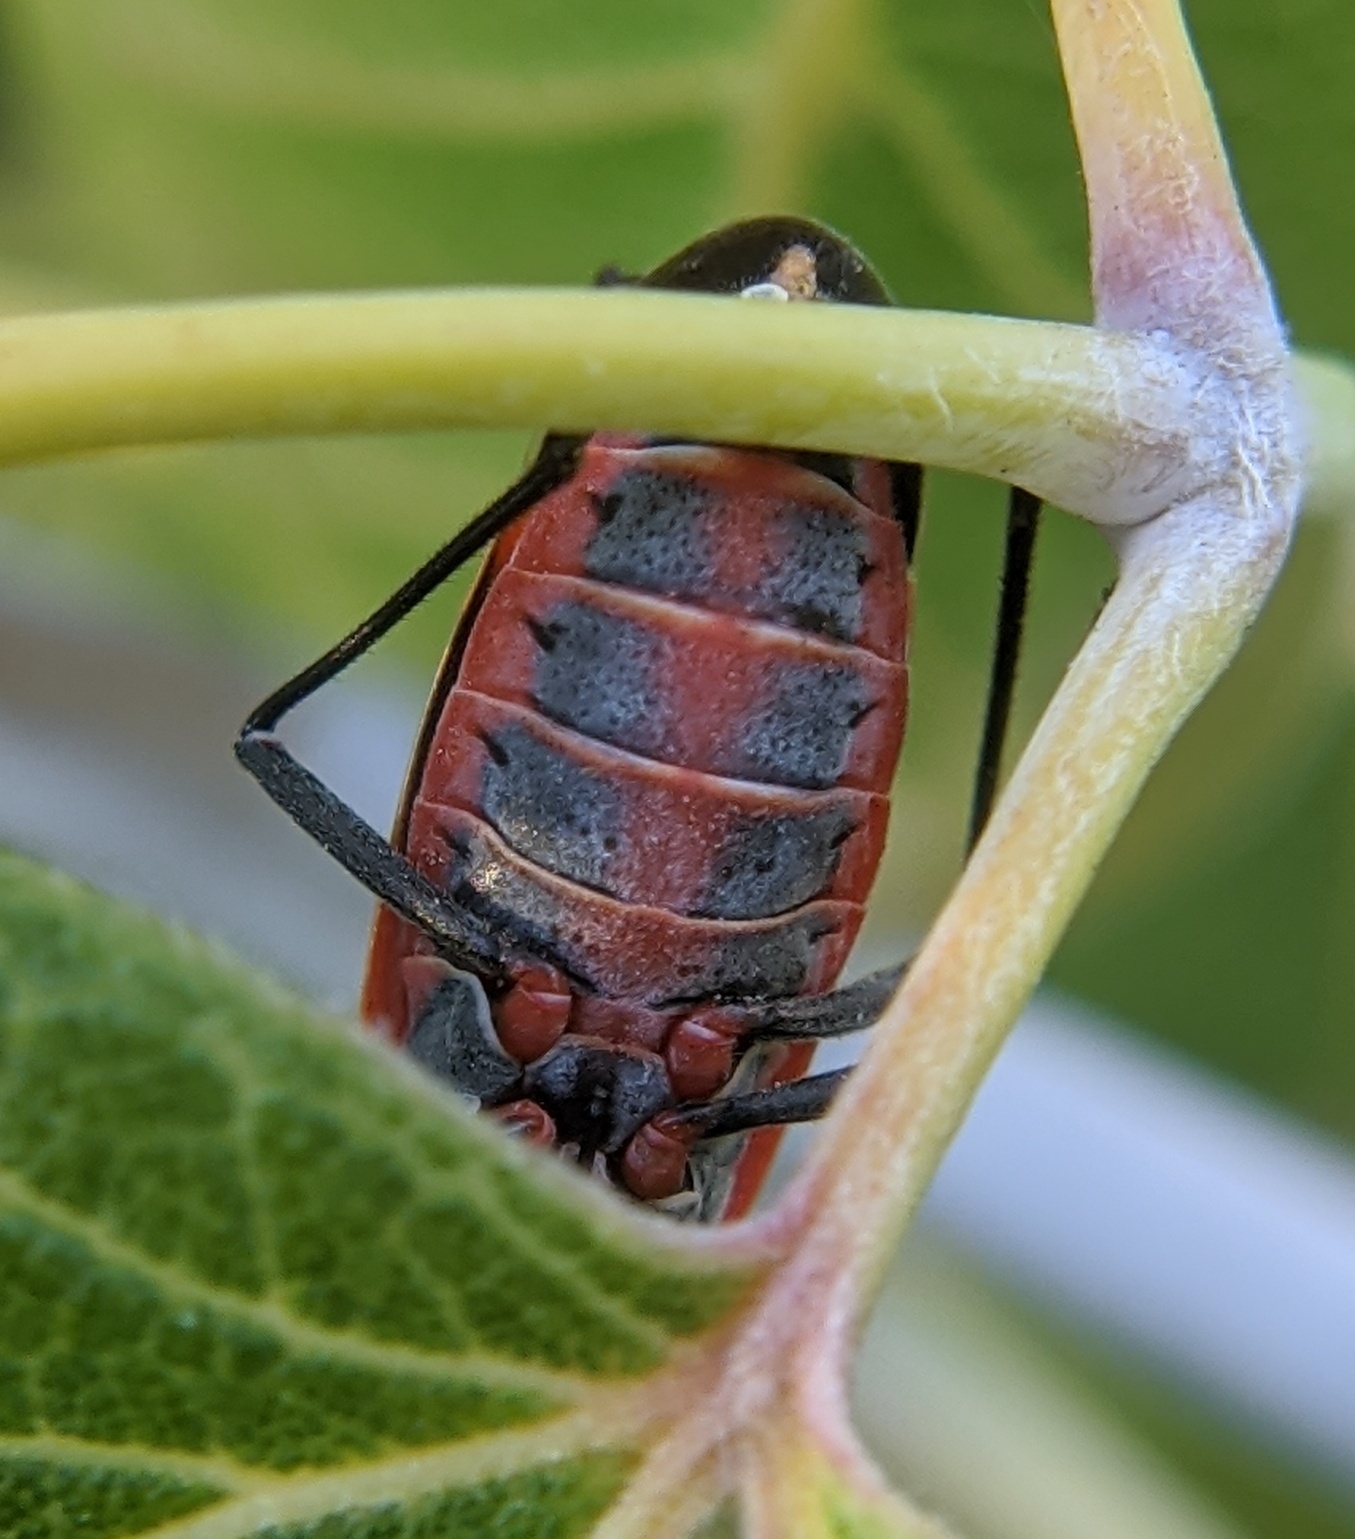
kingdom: Animalia
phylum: Arthropoda
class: Insecta
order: Hemiptera
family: Rhopalidae
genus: Boisea
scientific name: Boisea trivittata
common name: Boxelder bug
